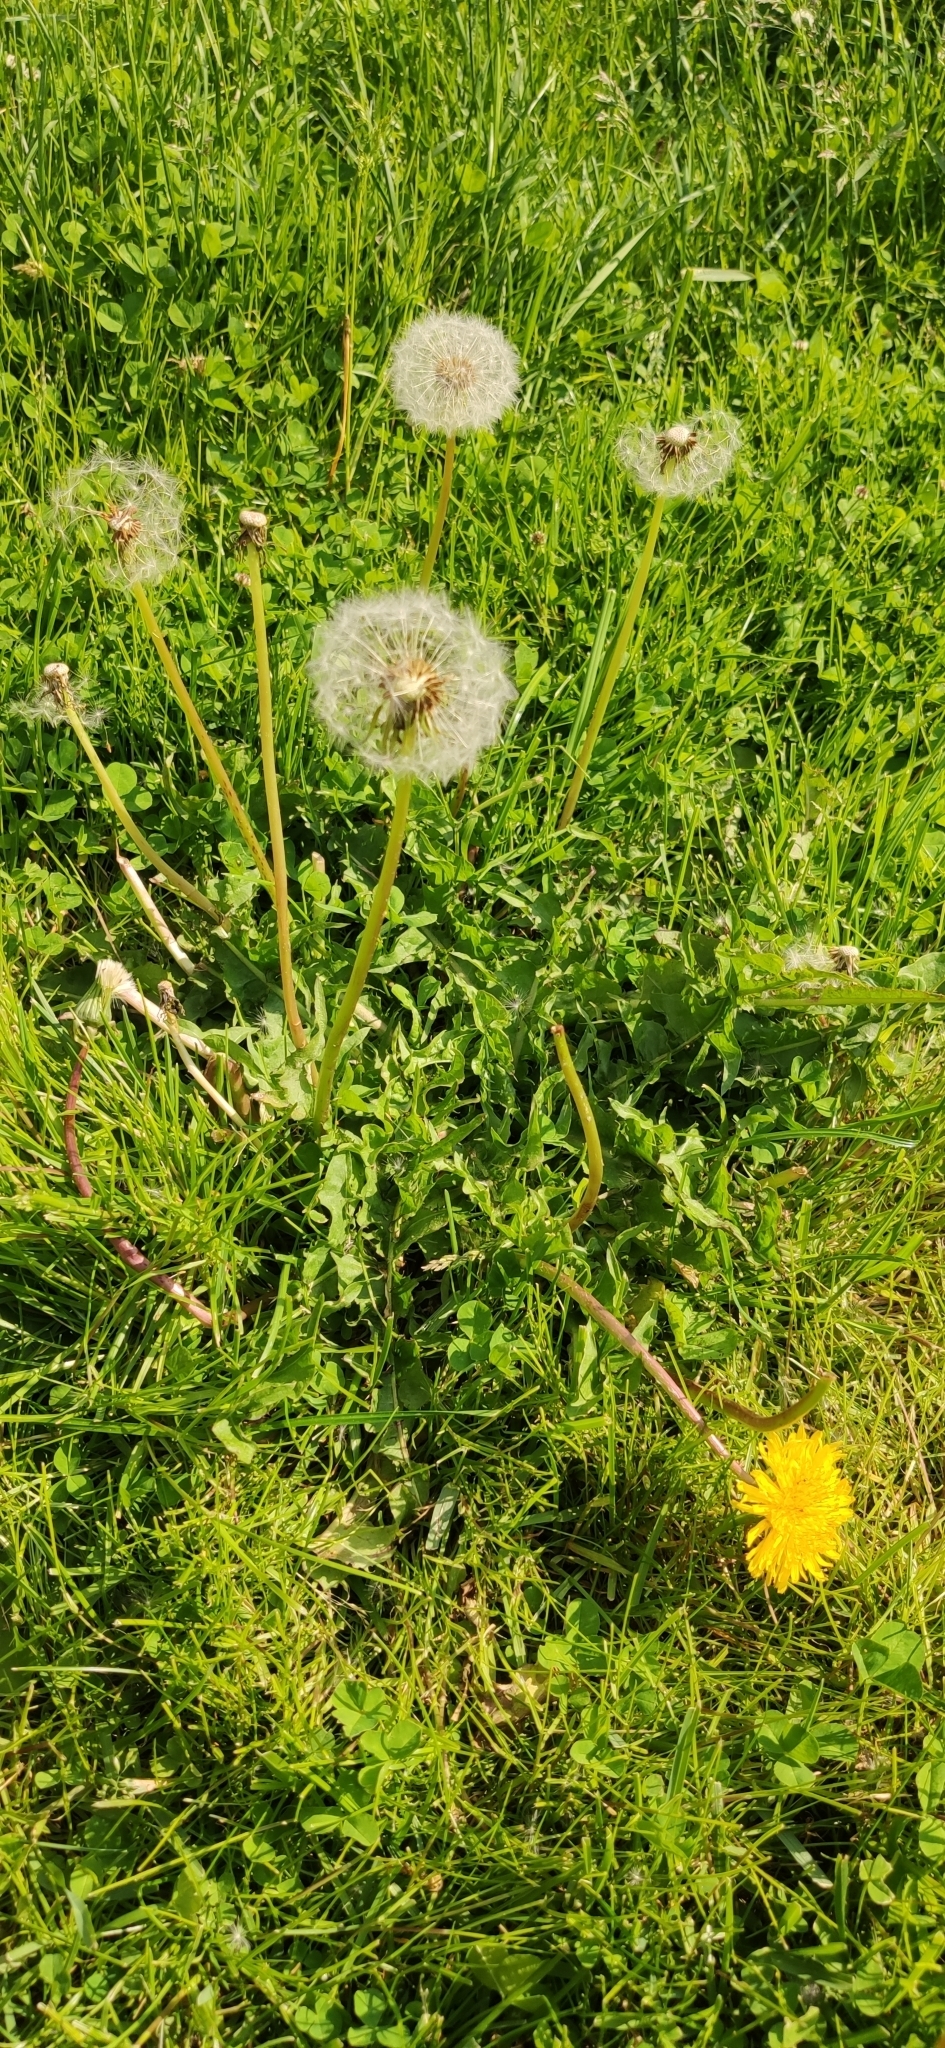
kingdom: Plantae
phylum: Tracheophyta
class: Magnoliopsida
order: Asterales
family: Asteraceae
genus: Taraxacum
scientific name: Taraxacum officinale
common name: Common dandelion
